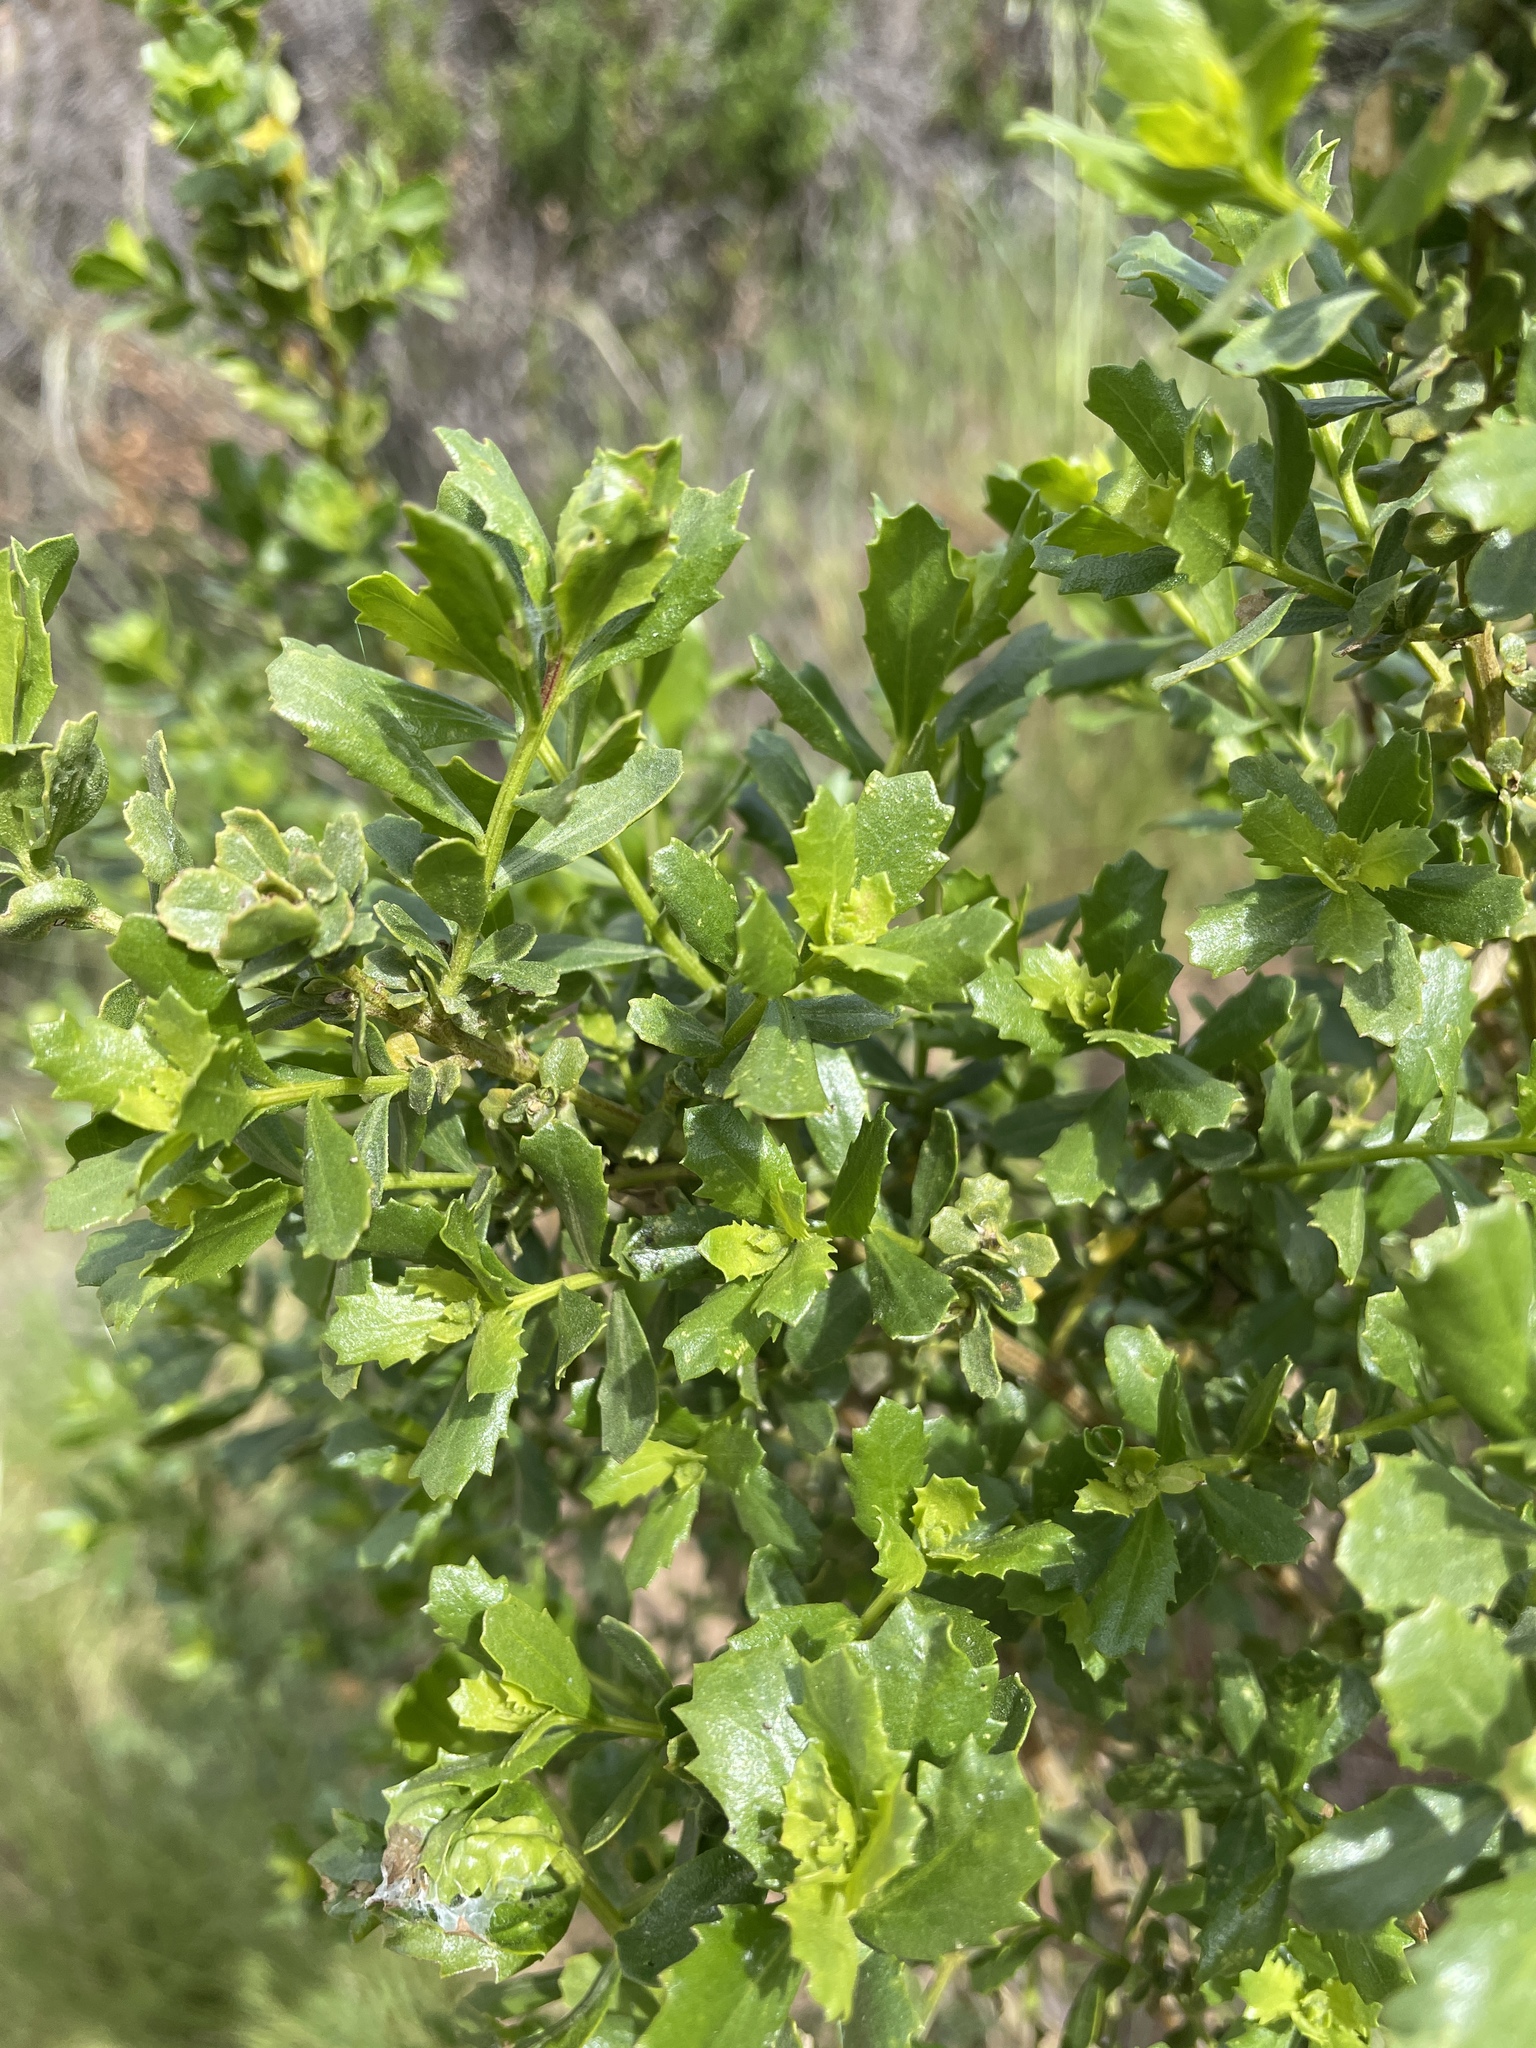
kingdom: Plantae
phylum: Tracheophyta
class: Magnoliopsida
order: Asterales
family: Asteraceae
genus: Baccharis
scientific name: Baccharis pilularis
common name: Coyotebrush
